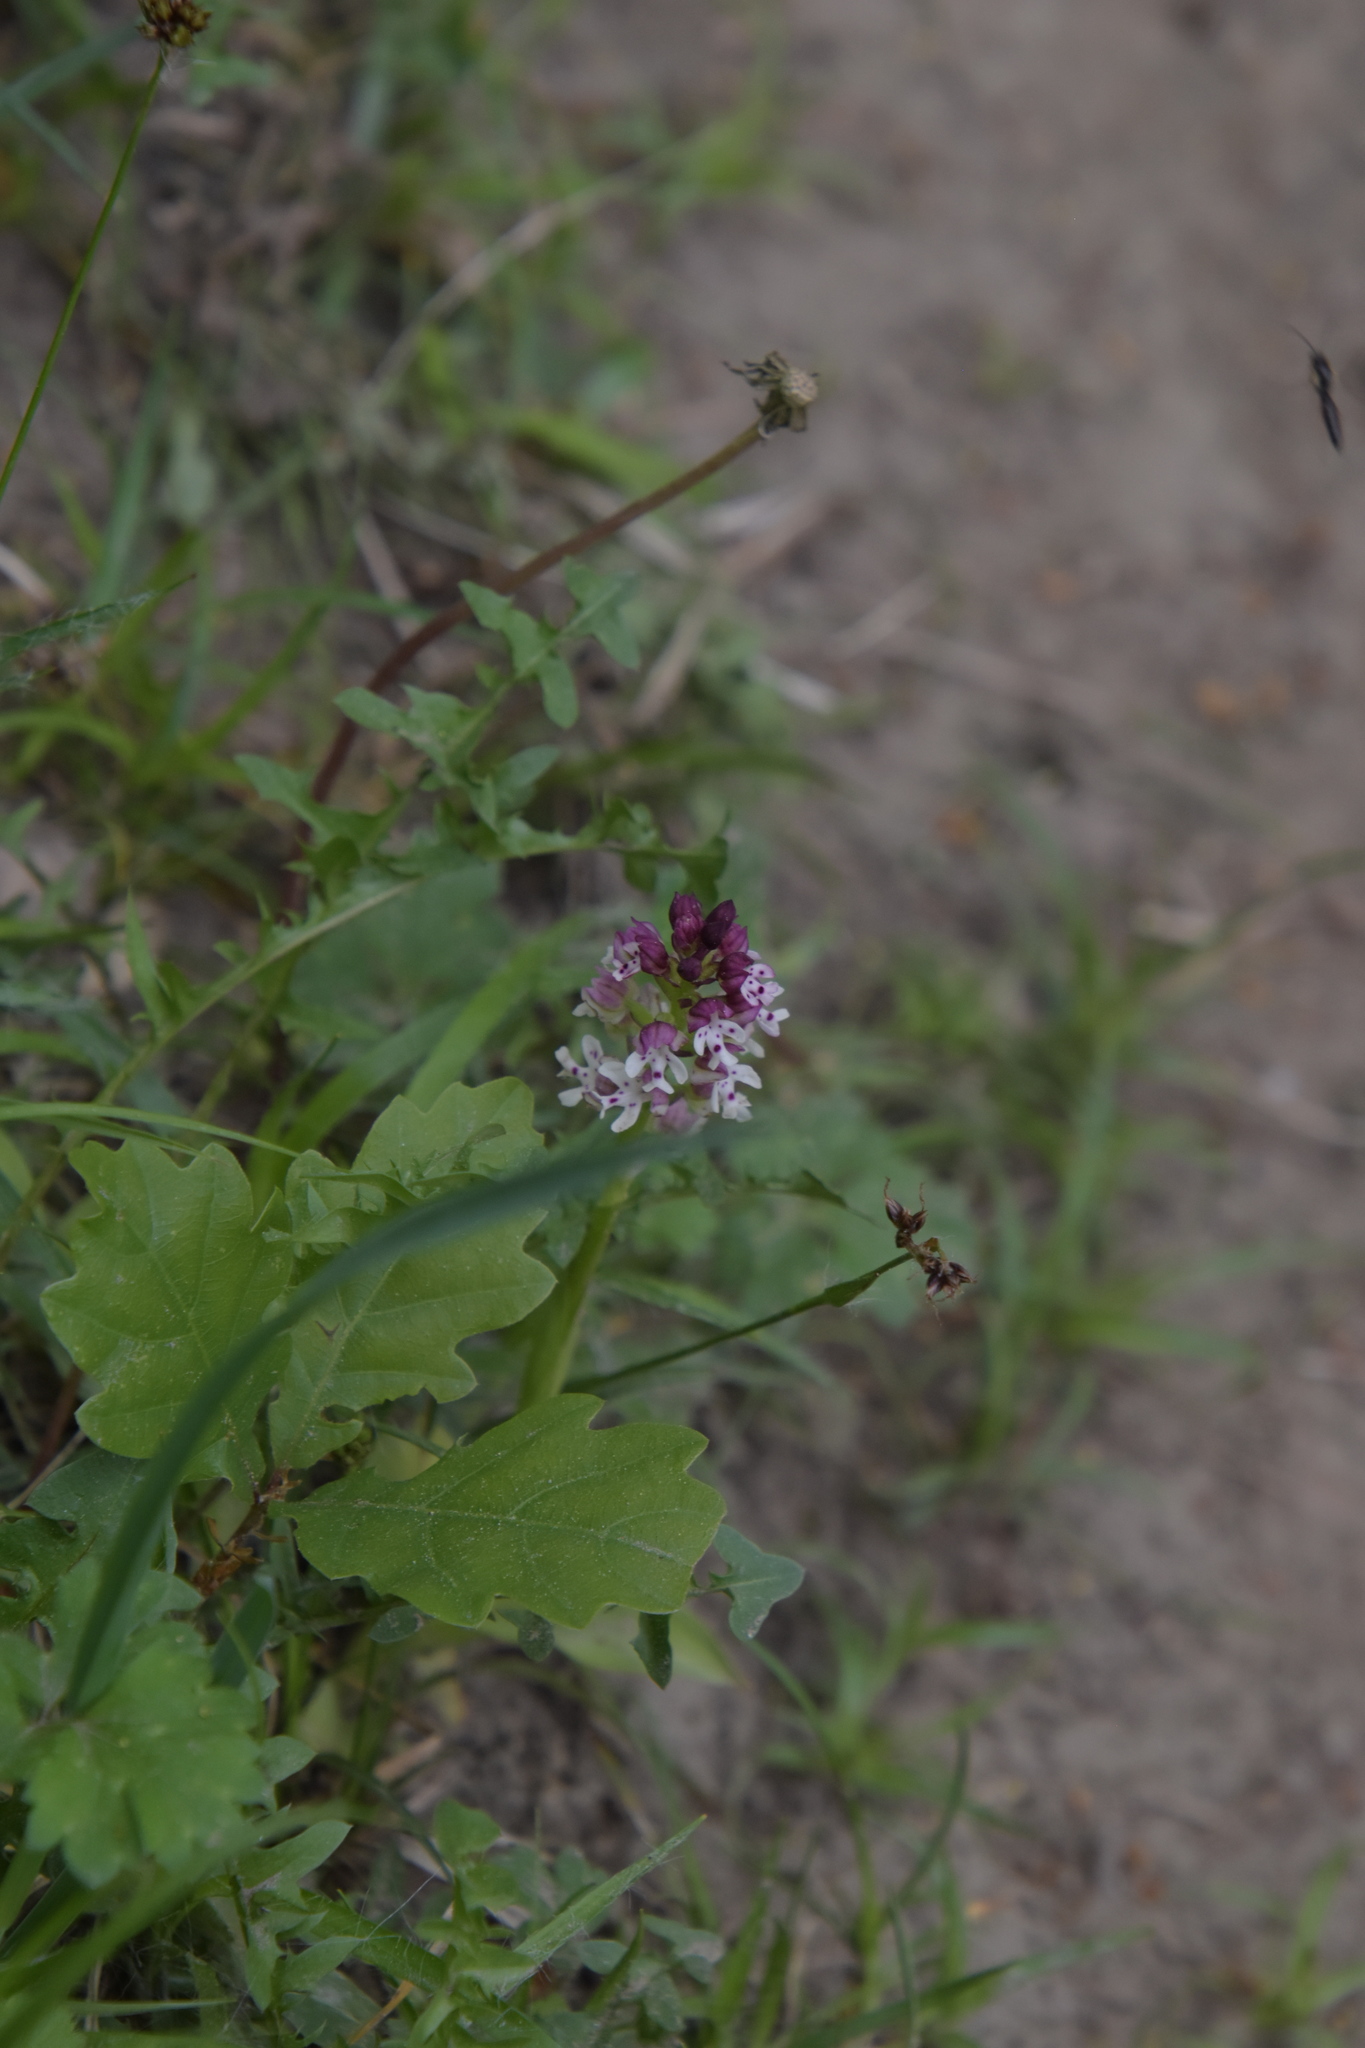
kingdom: Plantae
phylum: Tracheophyta
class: Liliopsida
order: Asparagales
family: Orchidaceae
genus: Neotinea
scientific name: Neotinea ustulata
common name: Burnt orchid
